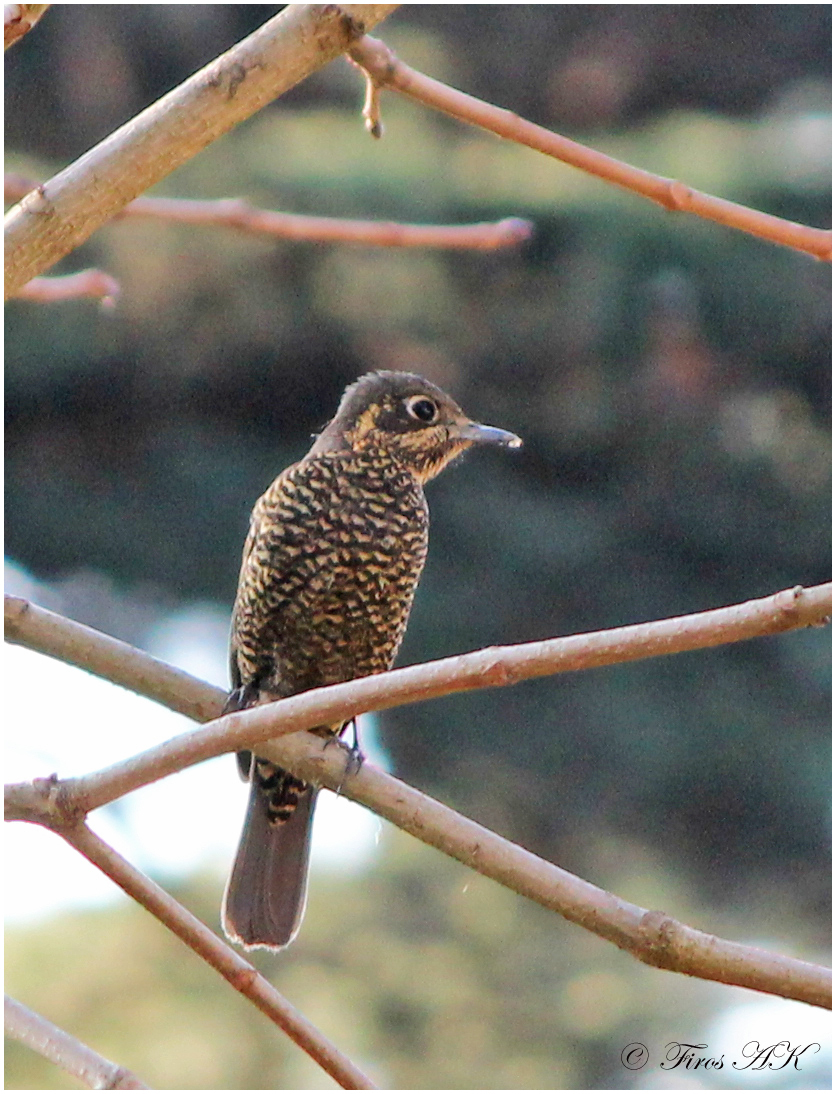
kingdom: Animalia
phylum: Chordata
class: Aves
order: Passeriformes
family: Muscicapidae
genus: Monticola
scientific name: Monticola rufiventris
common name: Chestnut-bellied rock thrush
